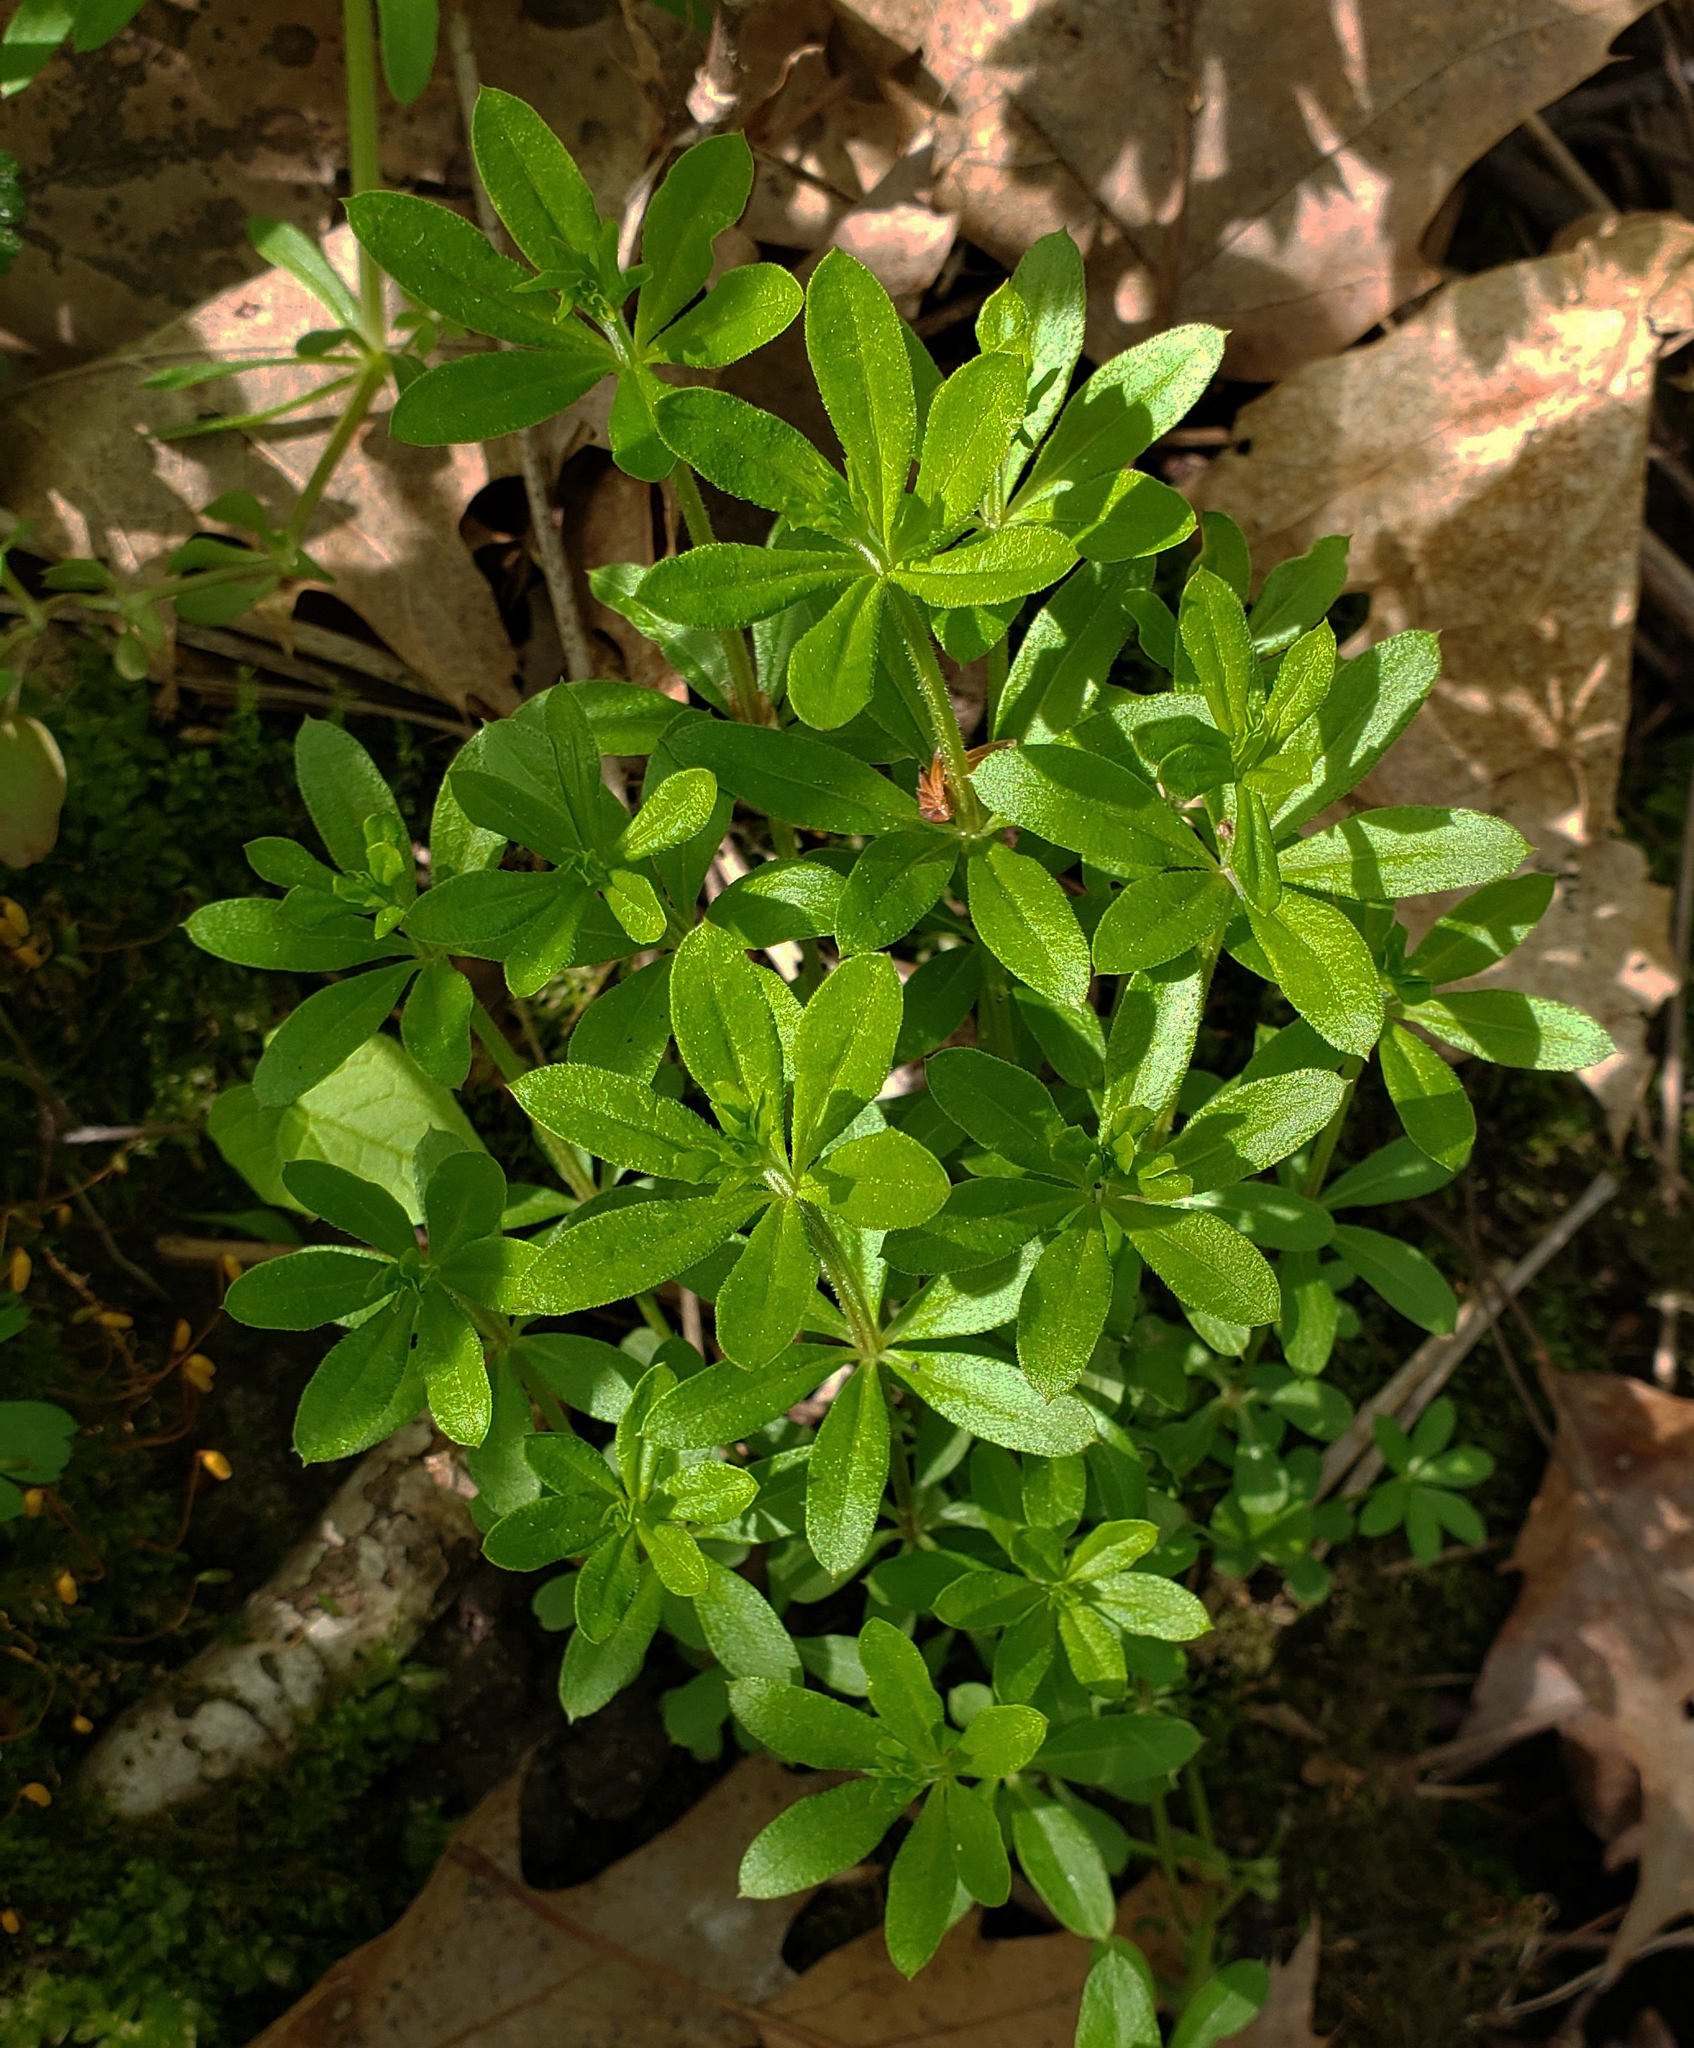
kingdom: Plantae
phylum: Tracheophyta
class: Magnoliopsida
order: Gentianales
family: Rubiaceae
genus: Galium
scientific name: Galium triflorum
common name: Fragrant bedstraw
